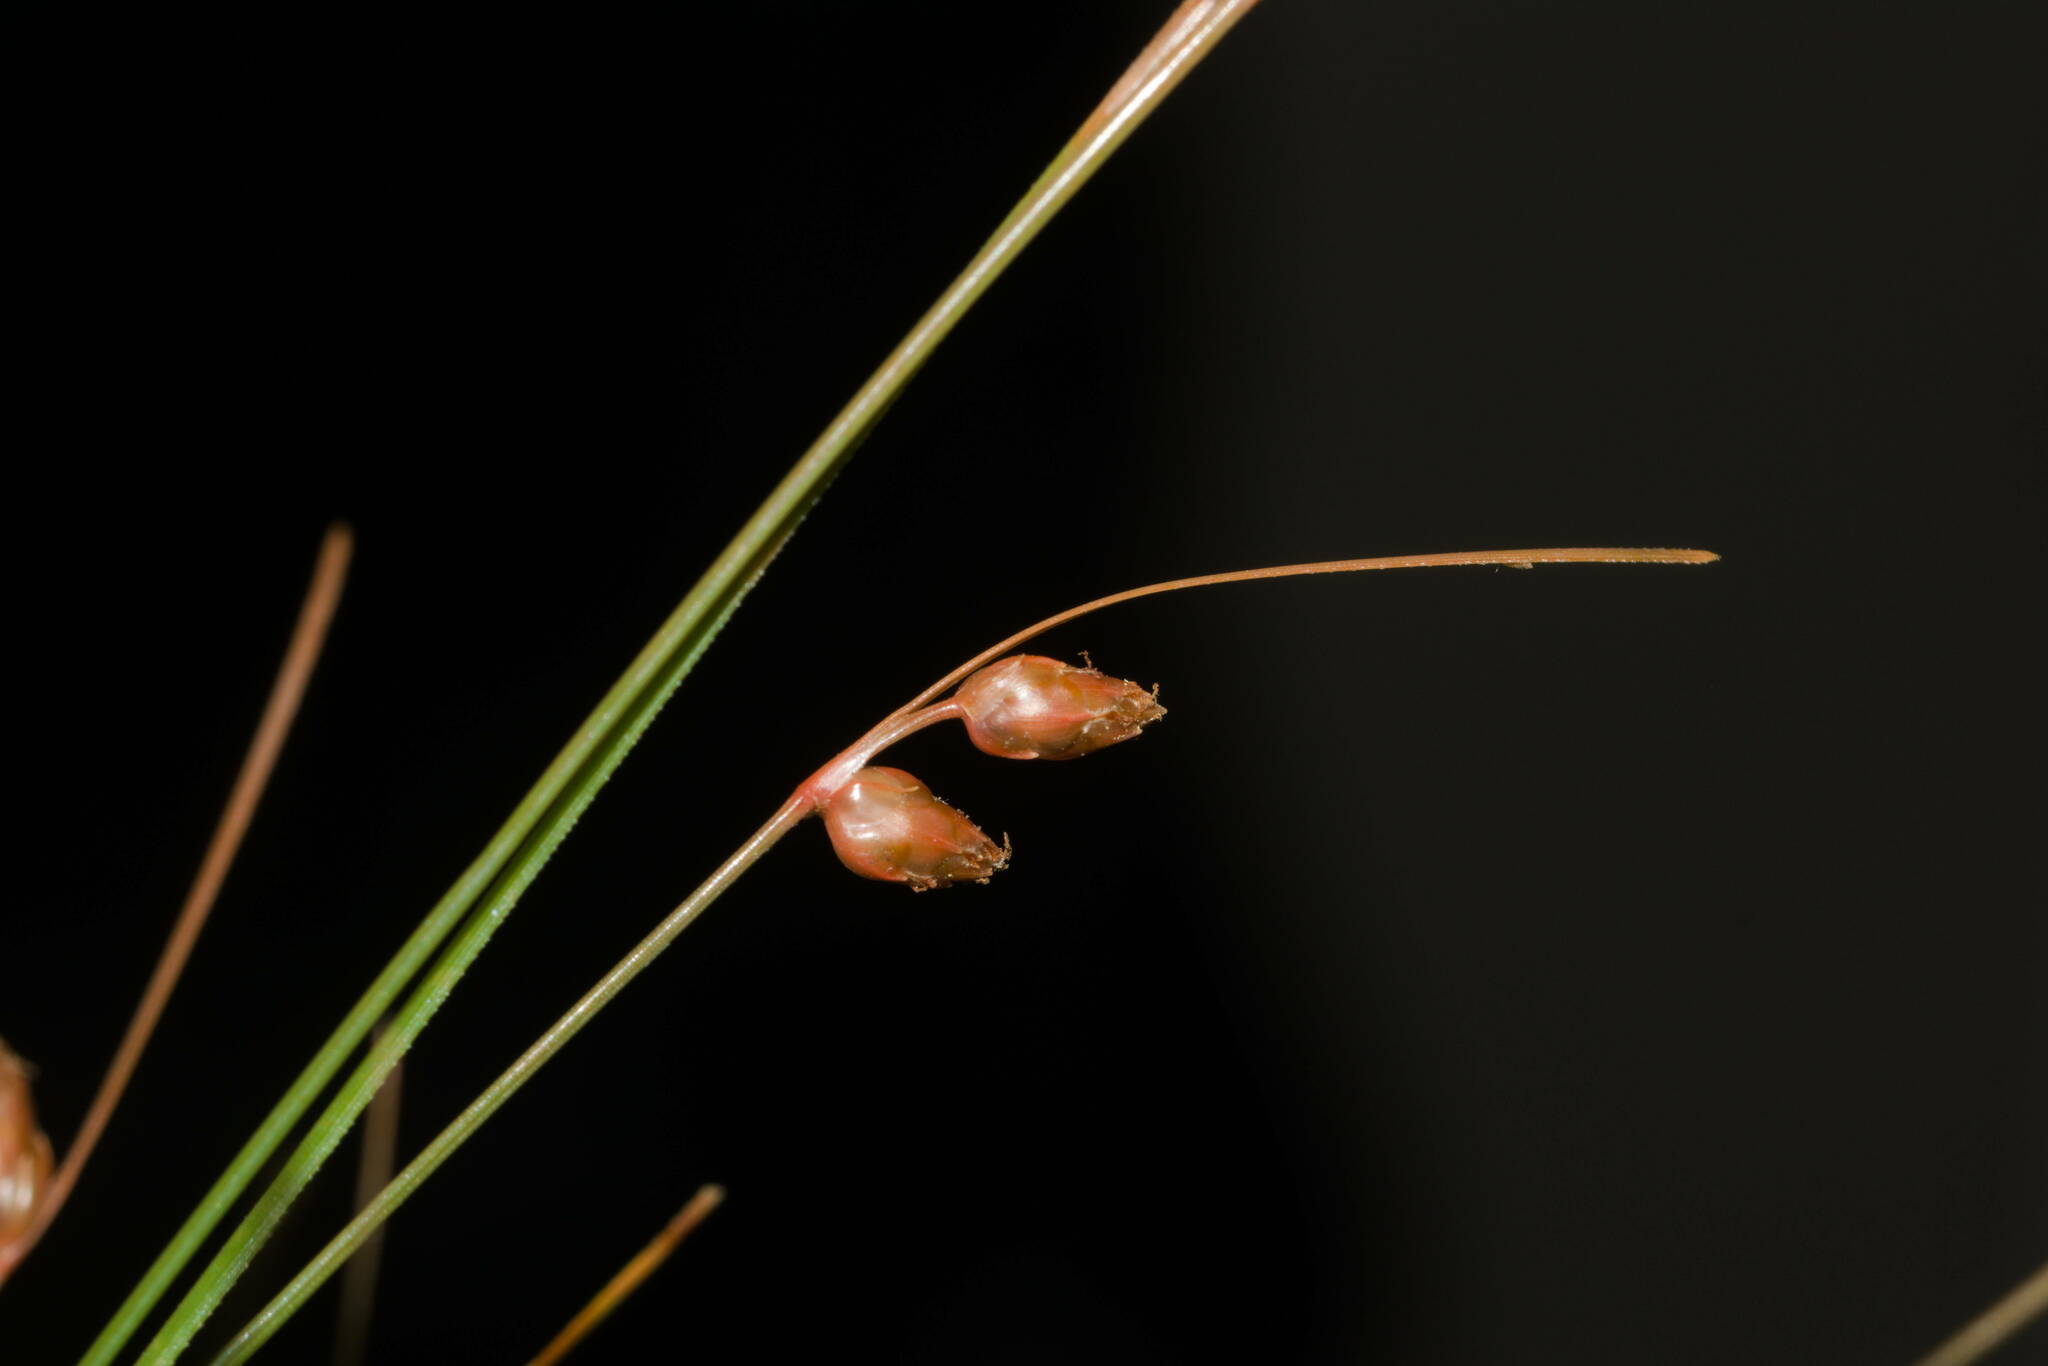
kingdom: Plantae
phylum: Tracheophyta
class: Liliopsida
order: Poales
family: Cyperaceae
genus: Fimbristylis
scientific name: Fimbristylis schoenoides
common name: Ditch fimbry
